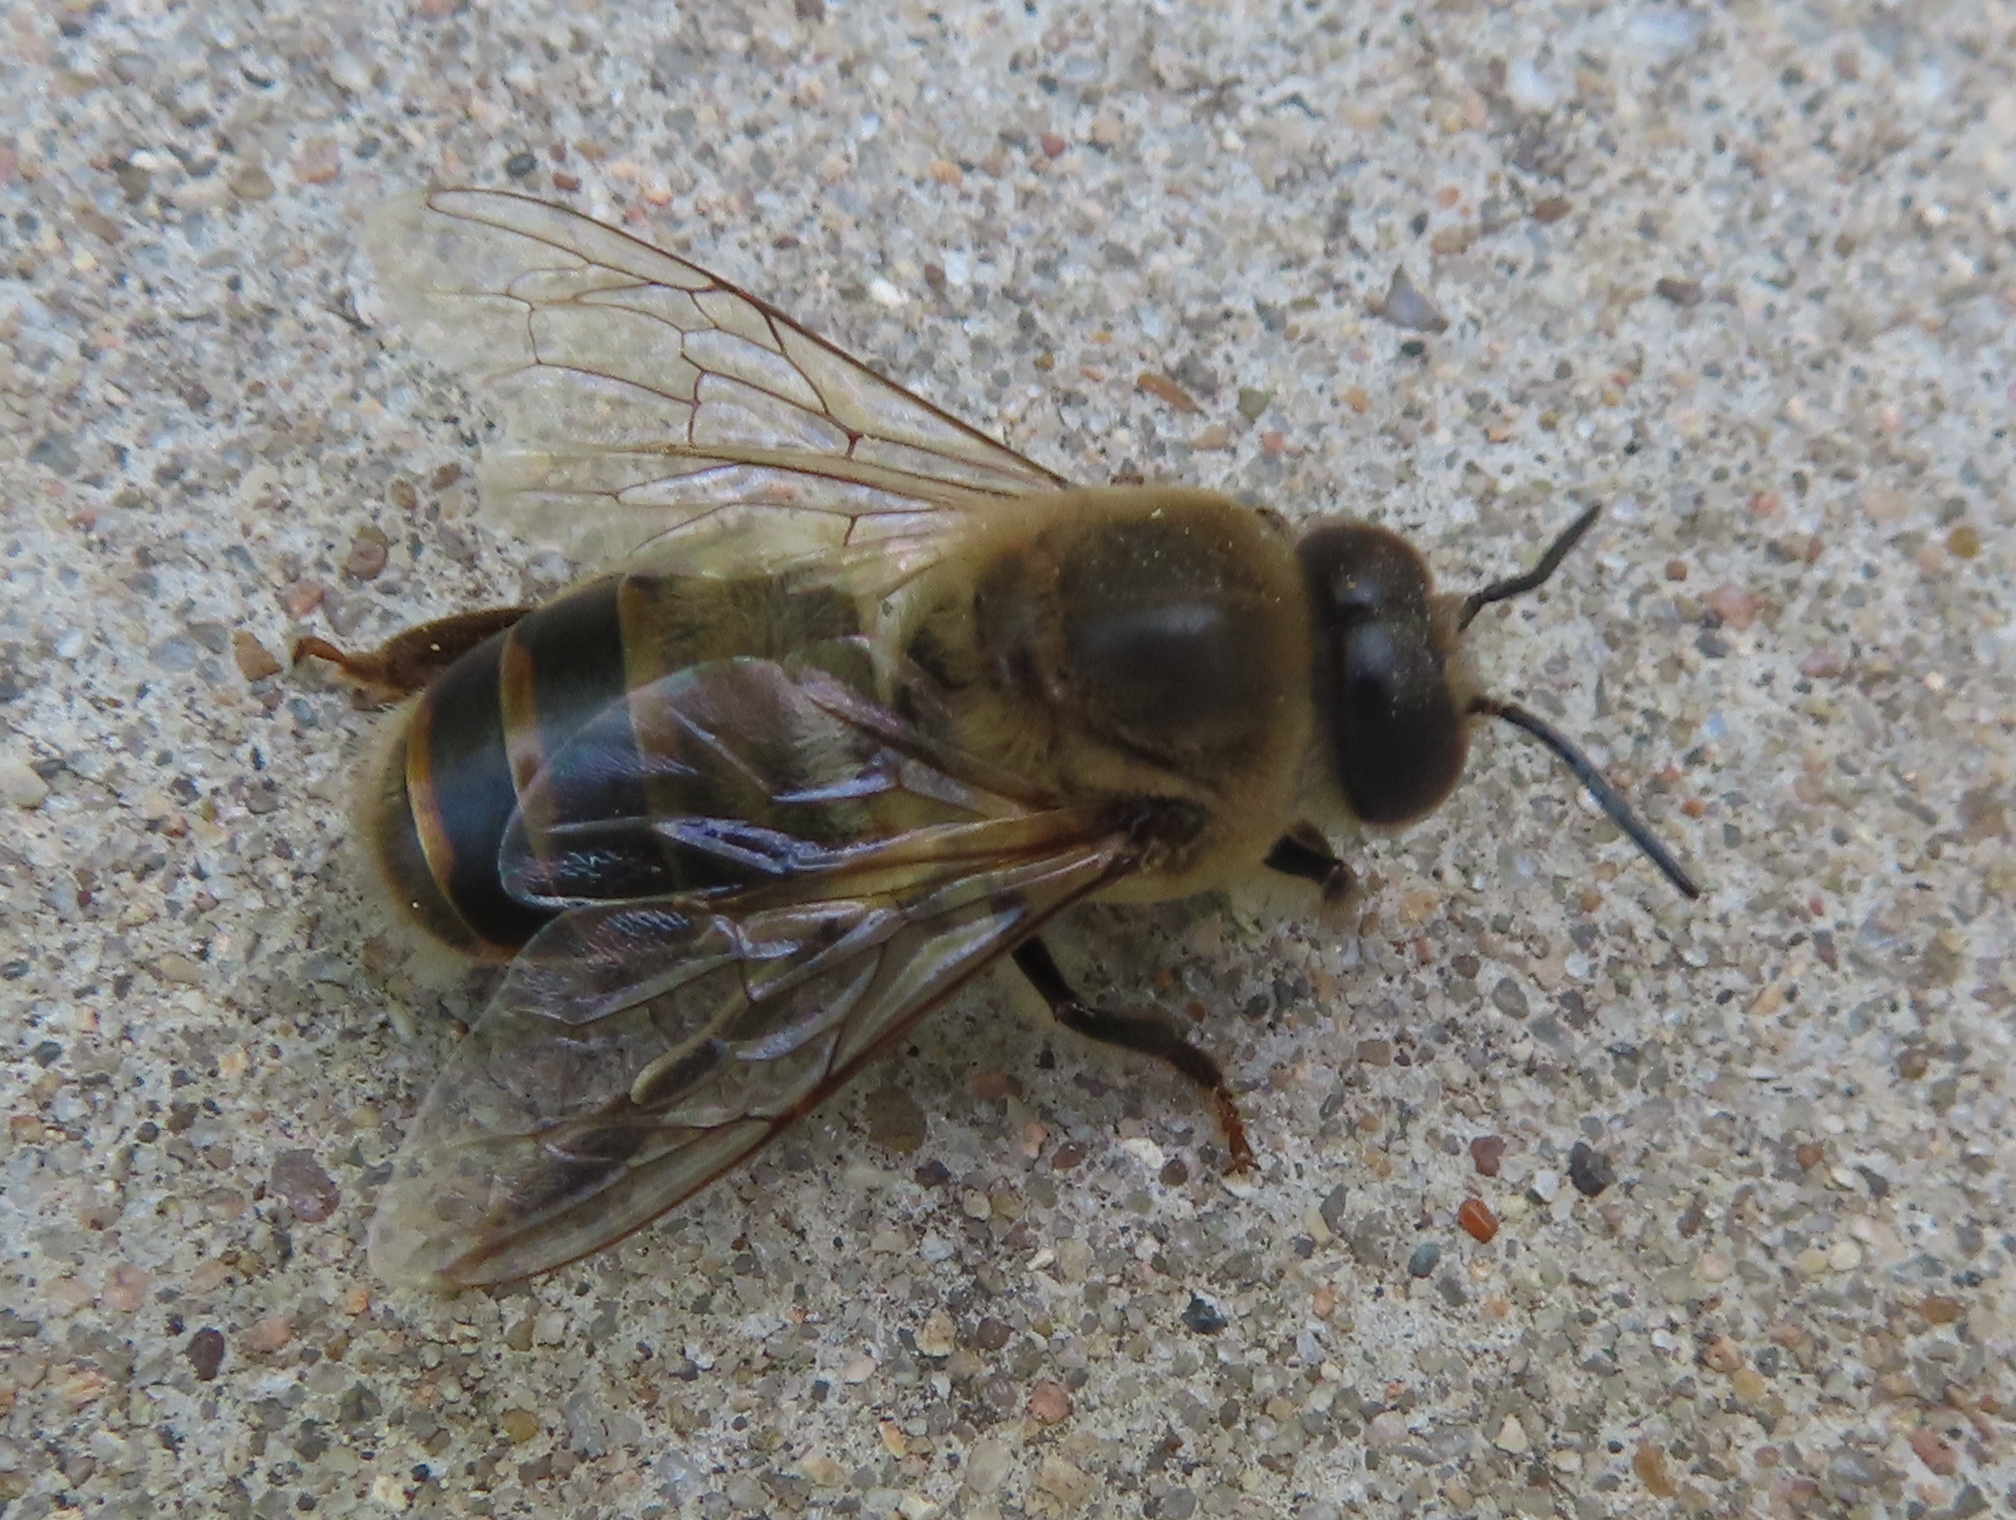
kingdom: Animalia
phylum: Arthropoda
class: Insecta
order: Hymenoptera
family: Apidae
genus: Apis
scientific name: Apis mellifera
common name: Honey bee
